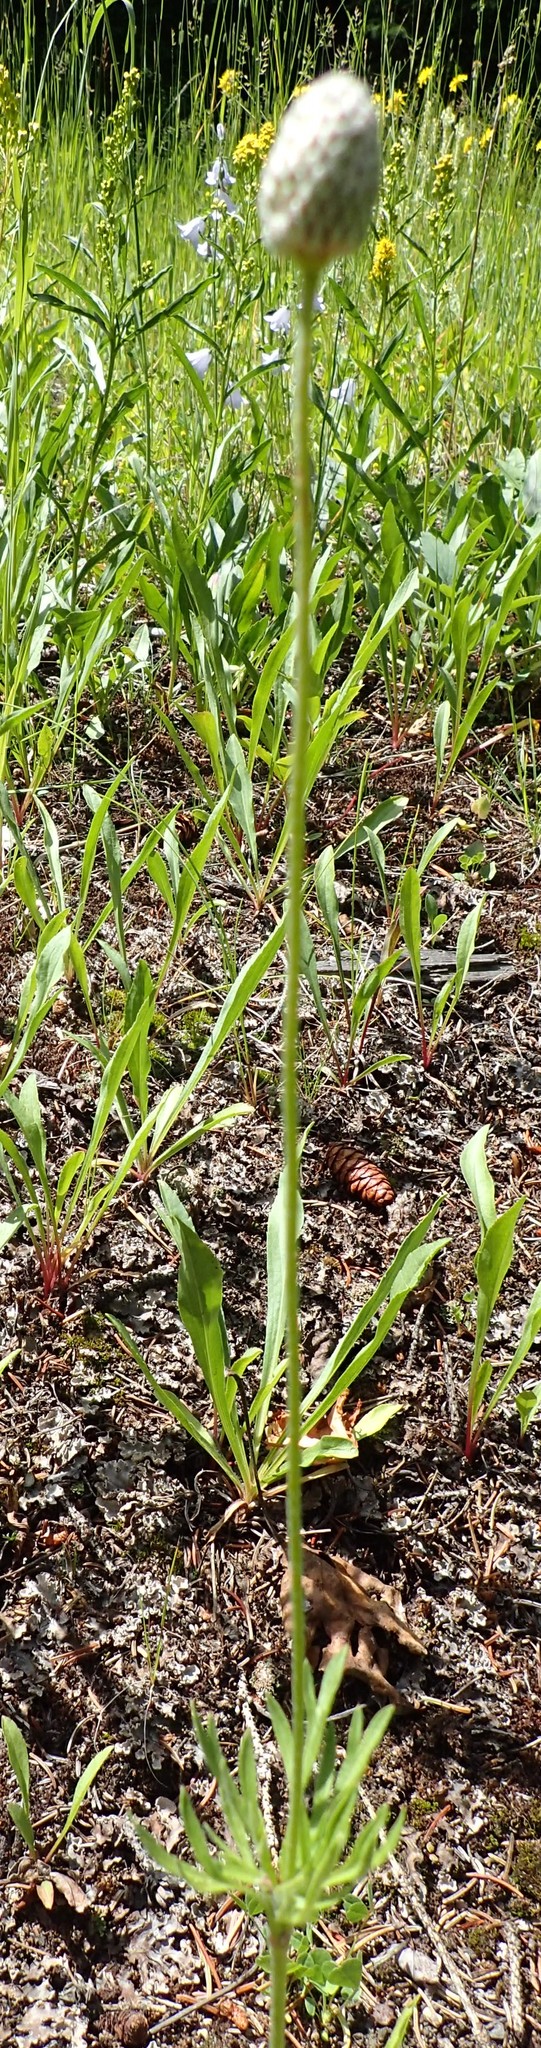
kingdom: Plantae
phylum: Tracheophyta
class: Magnoliopsida
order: Ranunculales
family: Ranunculaceae
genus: Anemone
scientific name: Anemone multifida
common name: Bird's-foot anemone
